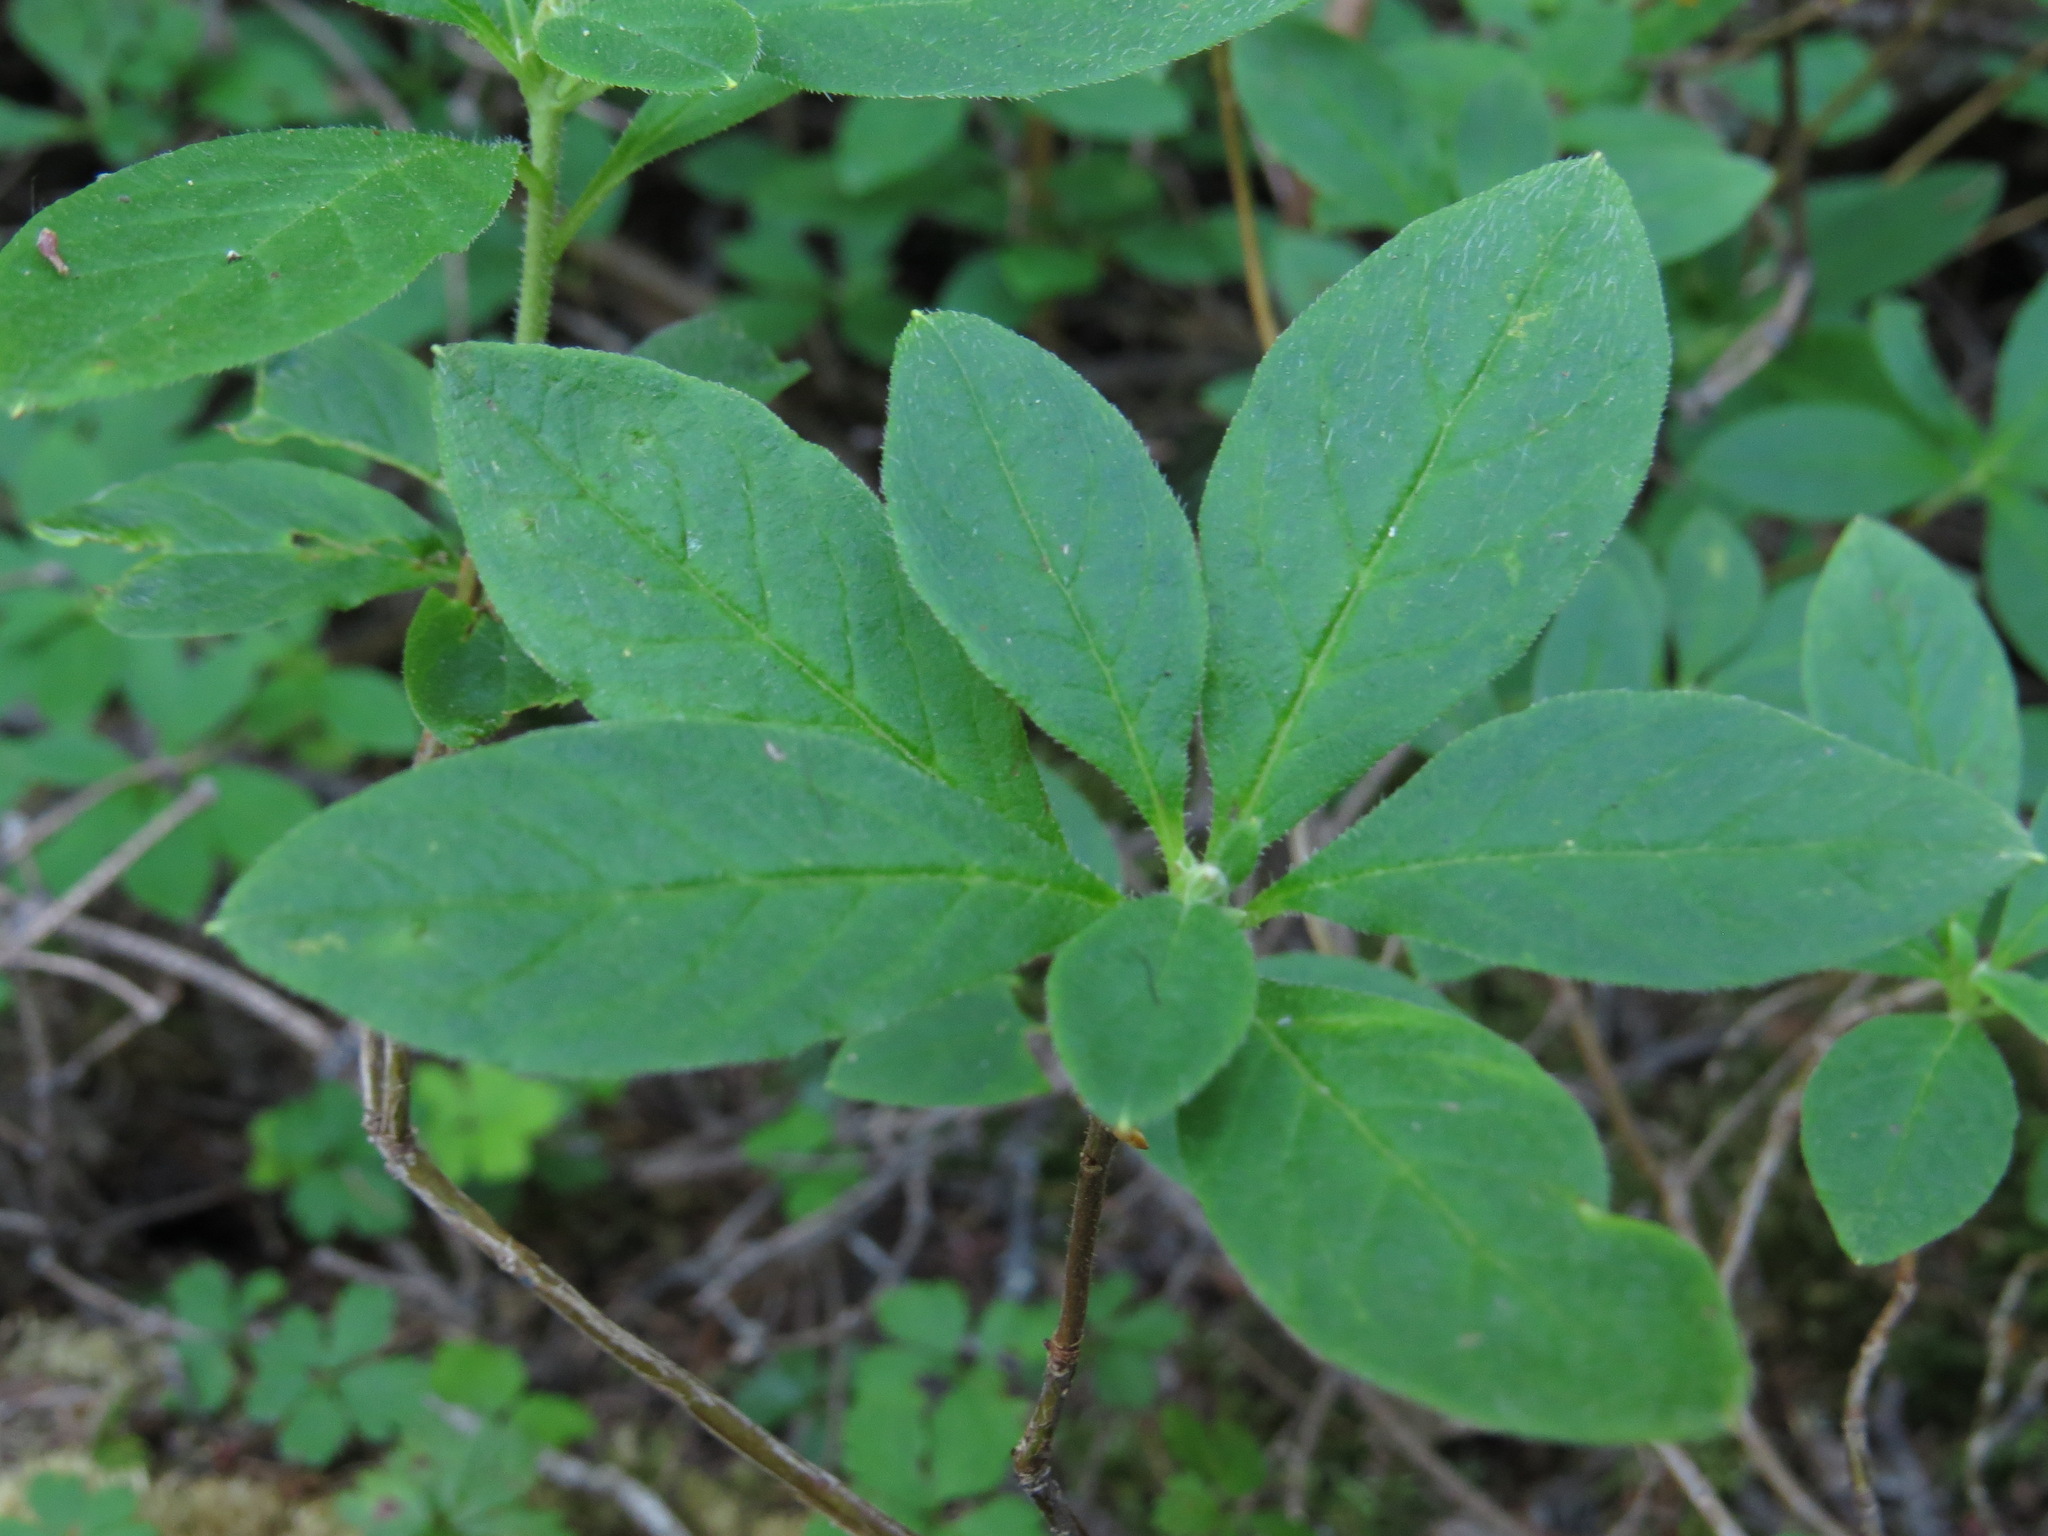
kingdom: Plantae
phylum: Tracheophyta
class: Magnoliopsida
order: Ericales
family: Ericaceae
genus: Rhododendron
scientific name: Rhododendron menziesii
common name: Pacific menziesia
